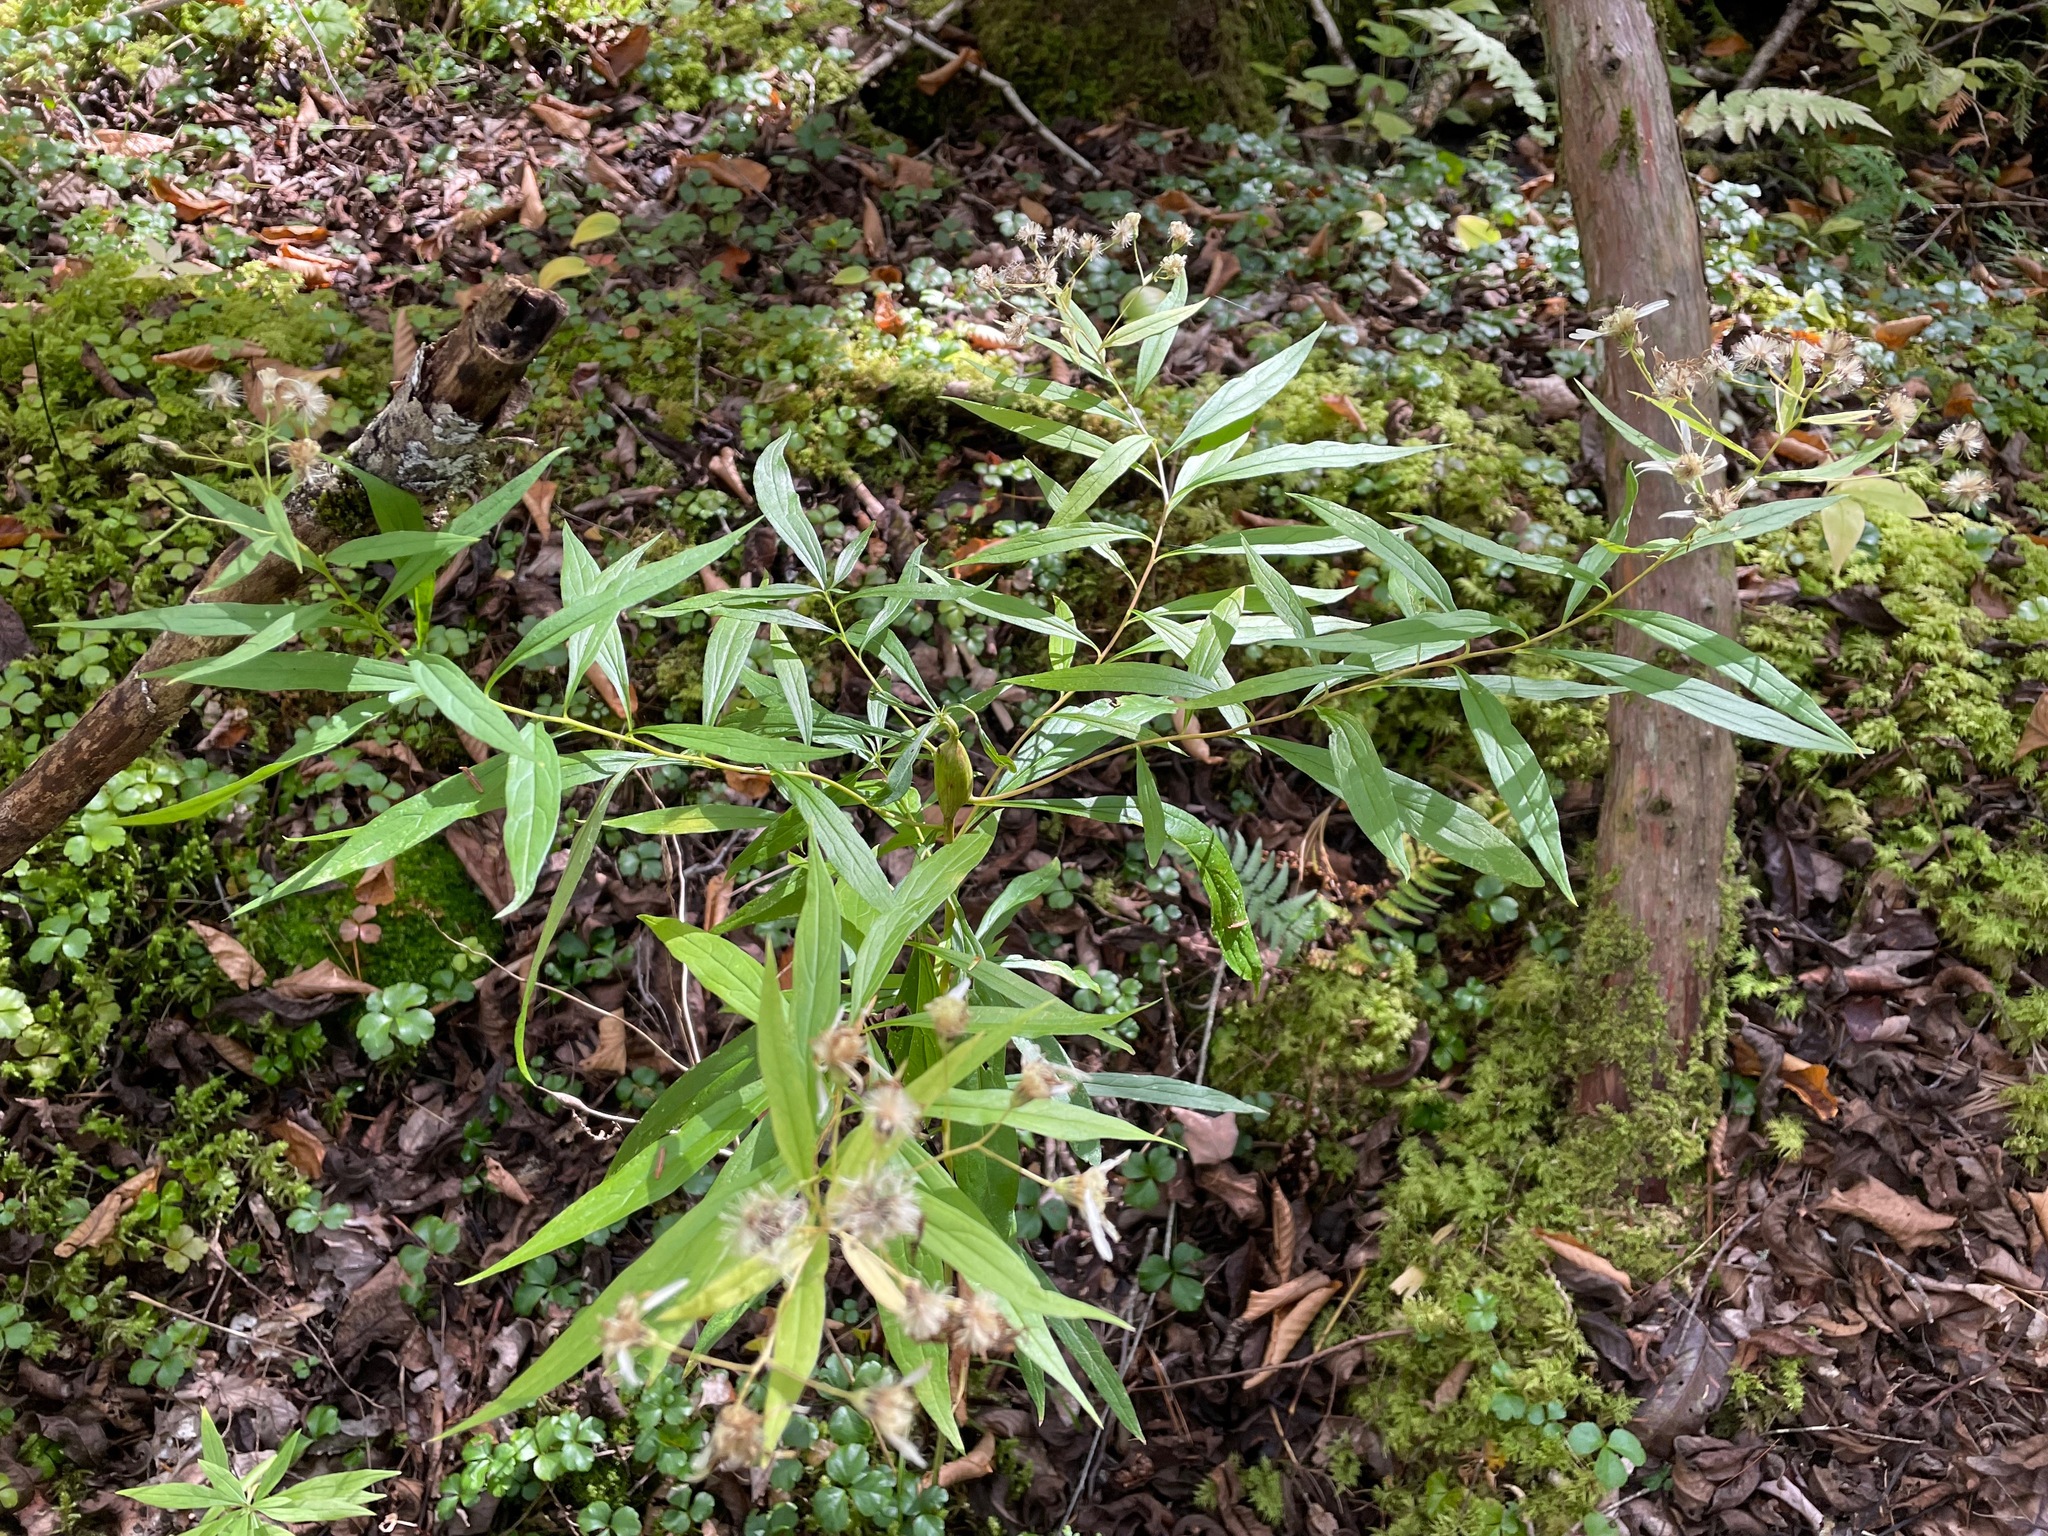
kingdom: Plantae
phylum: Tracheophyta
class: Magnoliopsida
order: Asterales
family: Asteraceae
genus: Doellingeria
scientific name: Doellingeria umbellata
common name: Flat-top white aster
